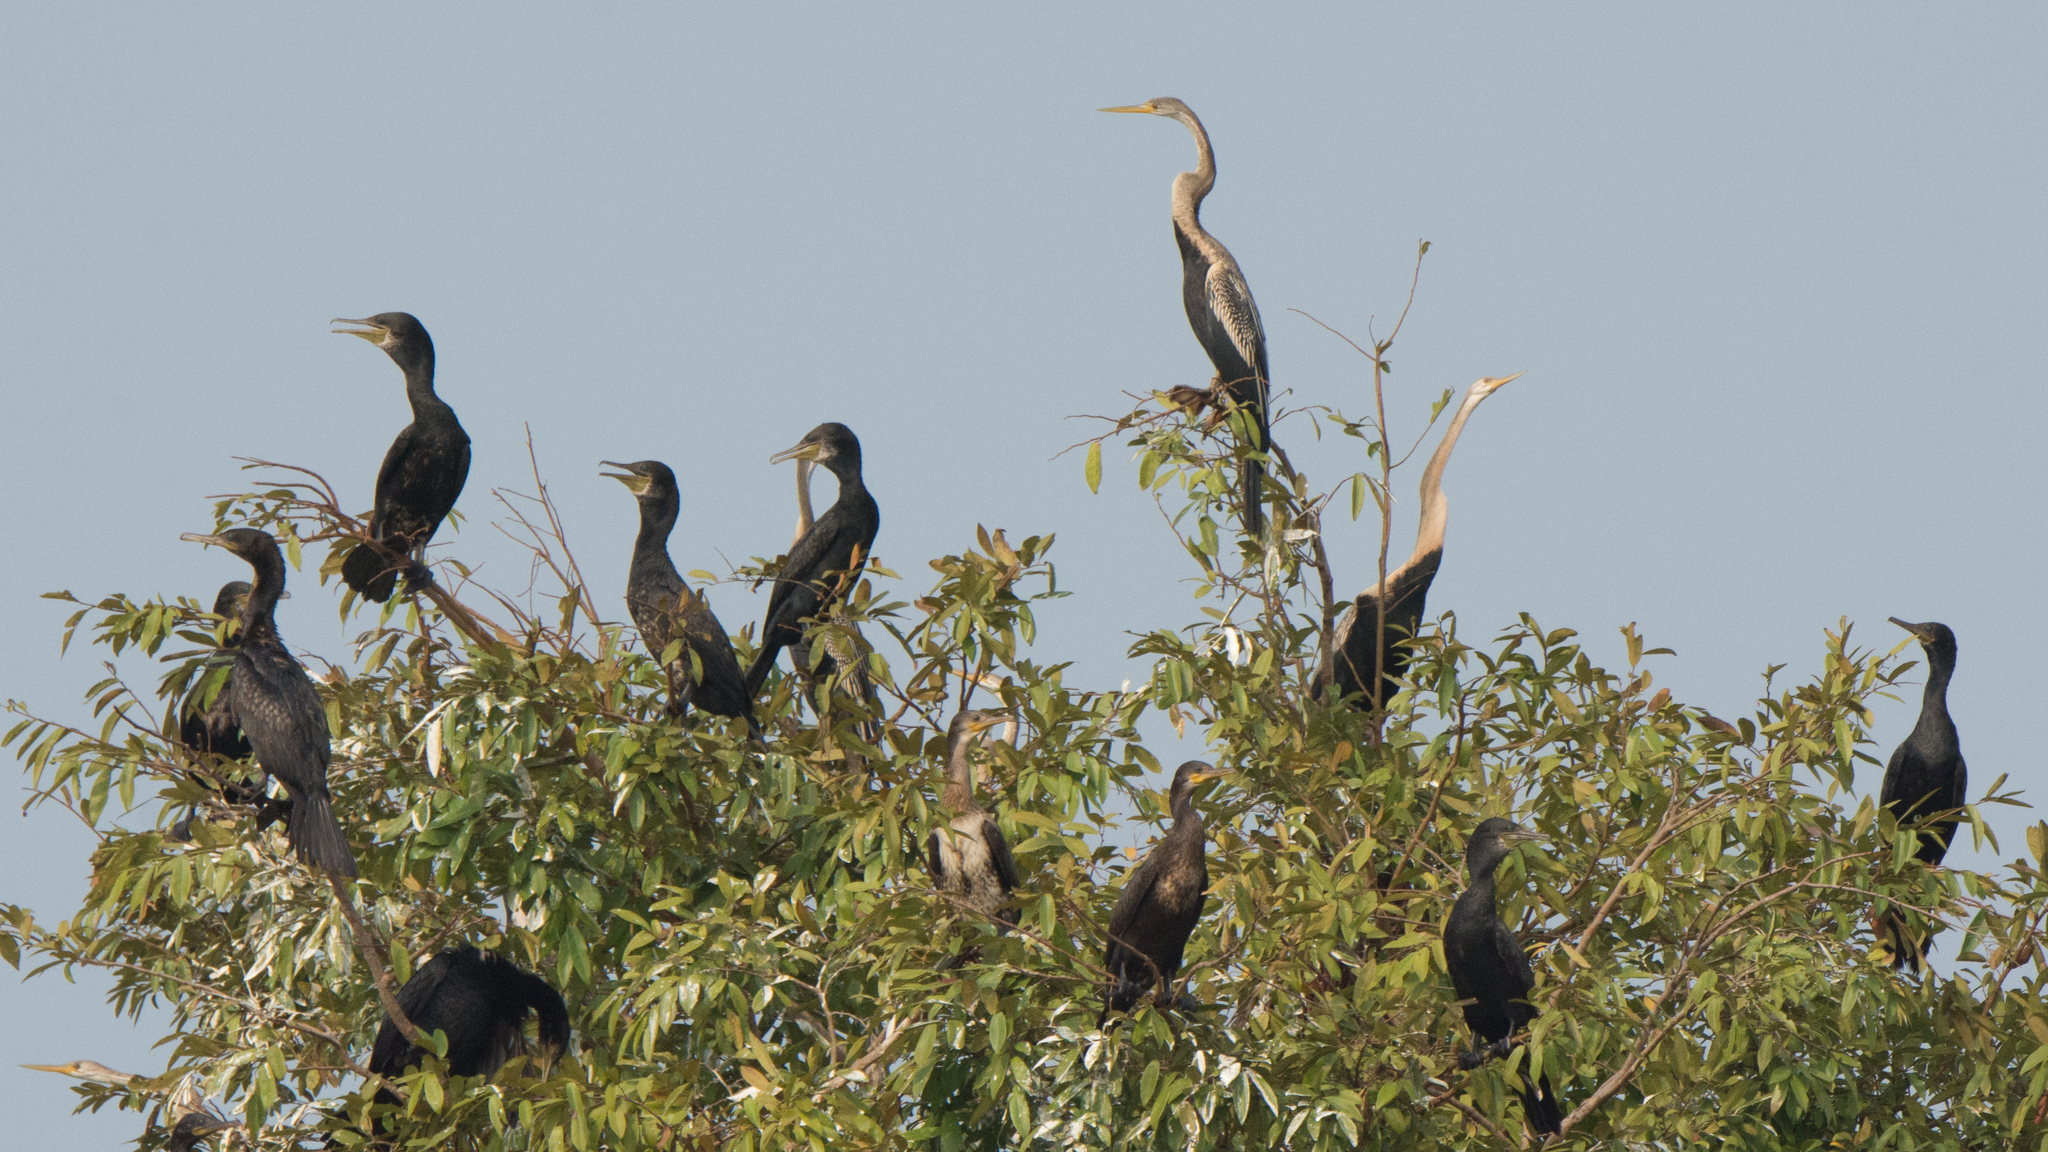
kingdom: Animalia
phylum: Chordata
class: Aves
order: Suliformes
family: Phalacrocoracidae
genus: Phalacrocorax
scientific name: Phalacrocorax fuscicollis
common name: Indian cormorant
